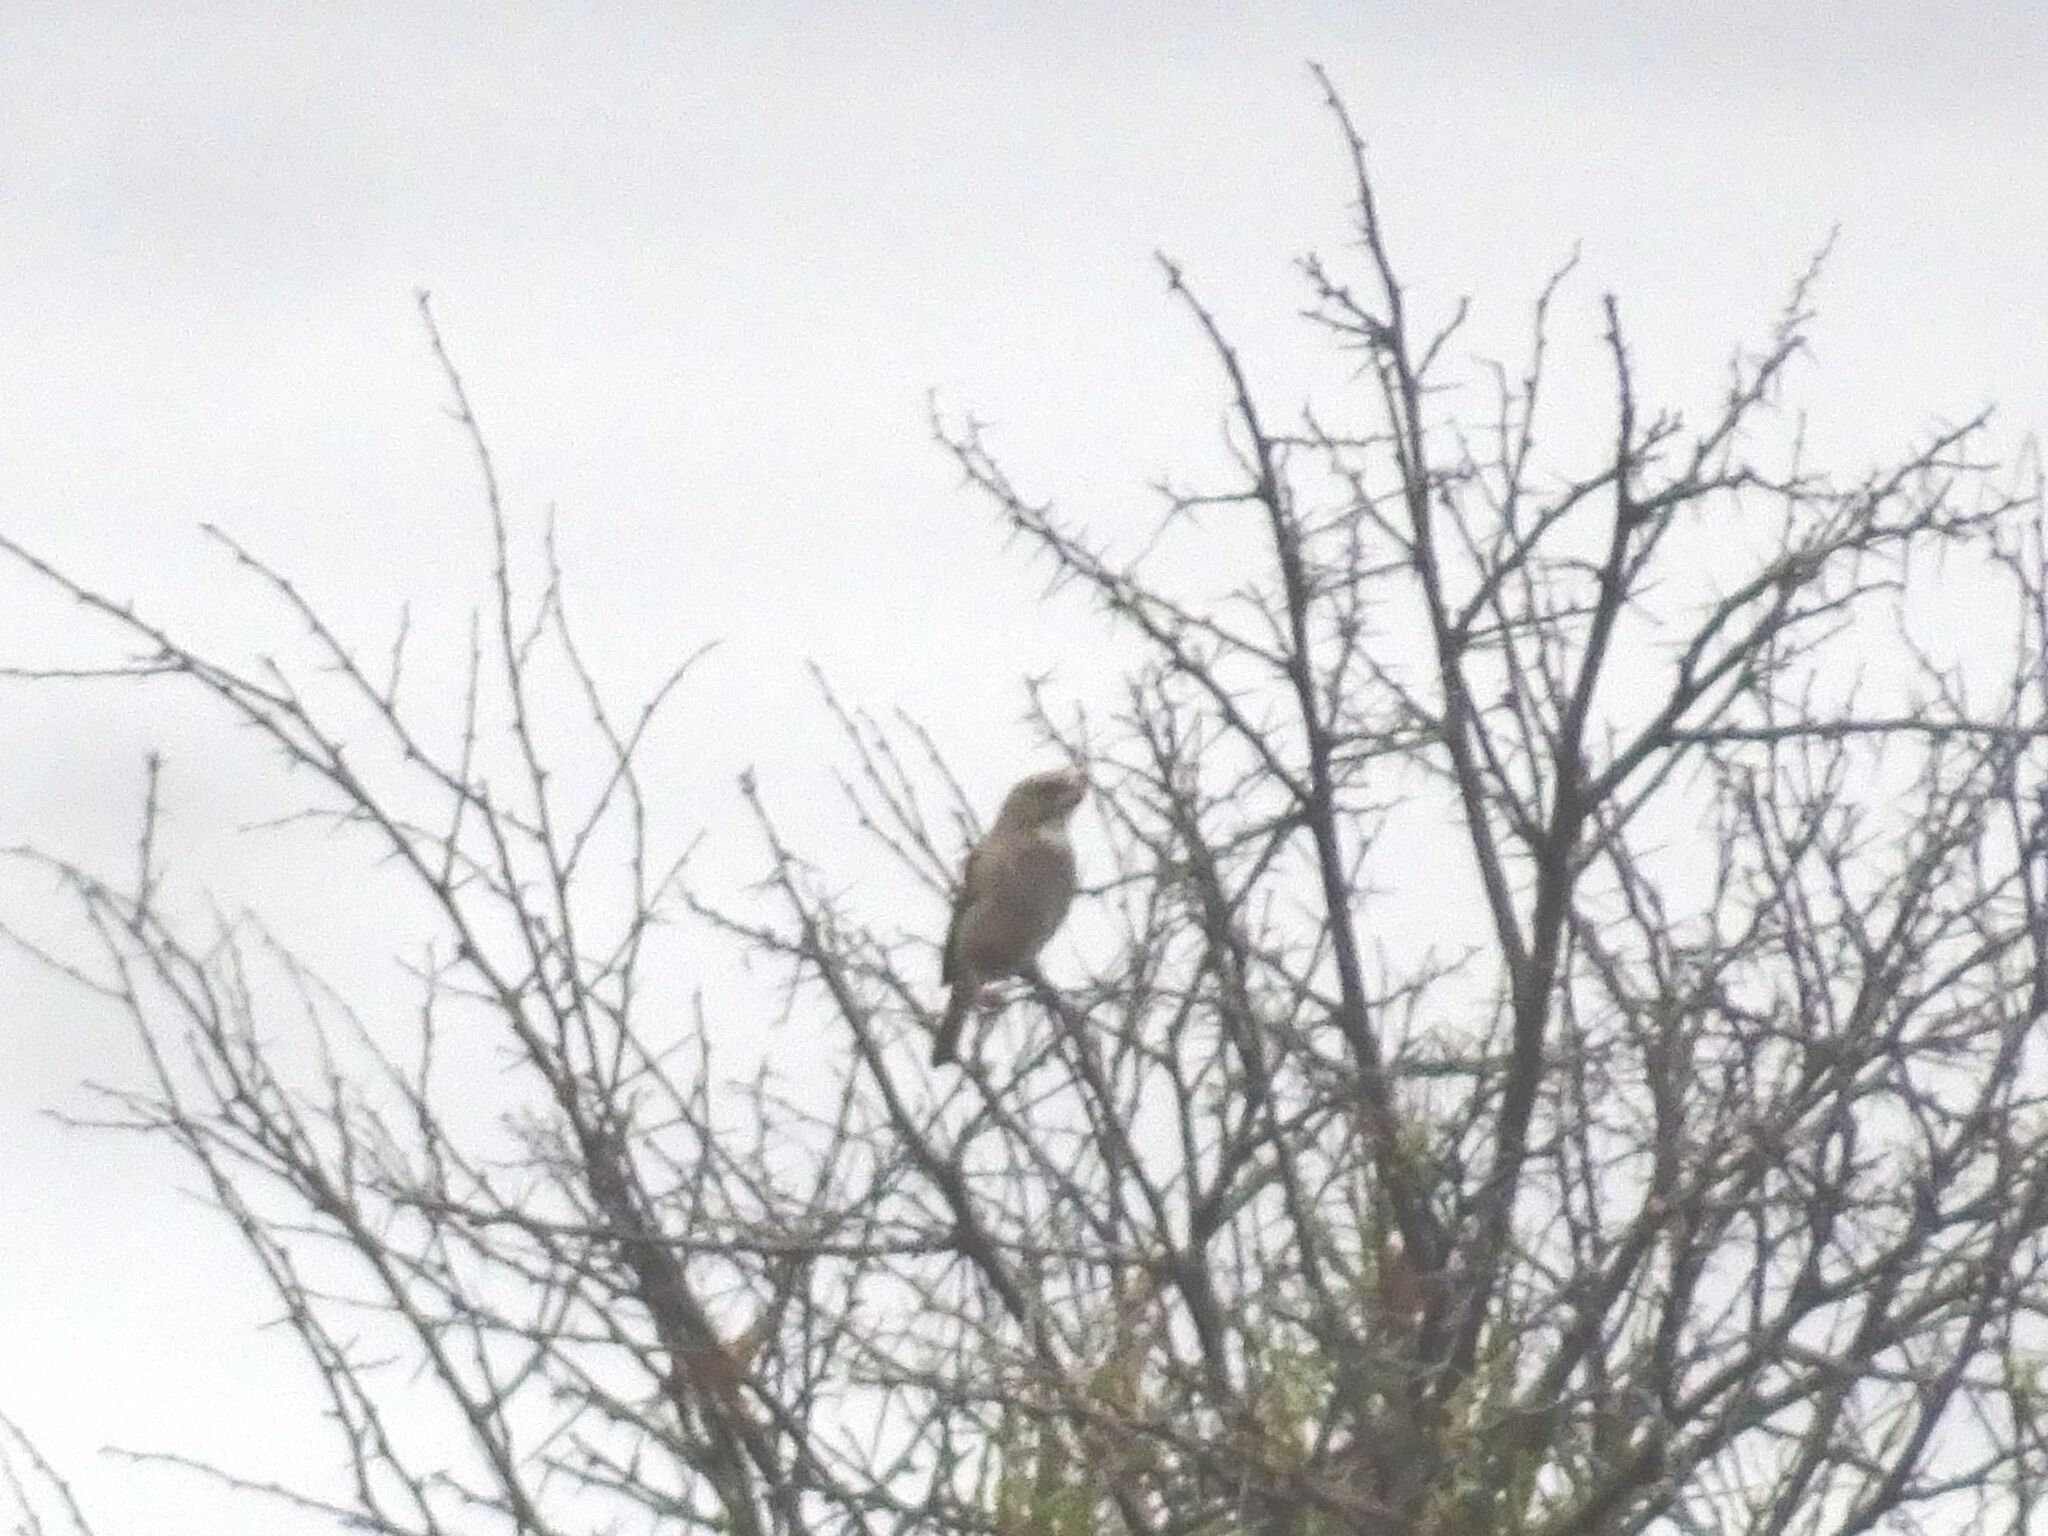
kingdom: Animalia
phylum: Chordata
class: Aves
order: Passeriformes
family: Fringillidae
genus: Crithagra
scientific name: Crithagra albogularis
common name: White-throated canary
